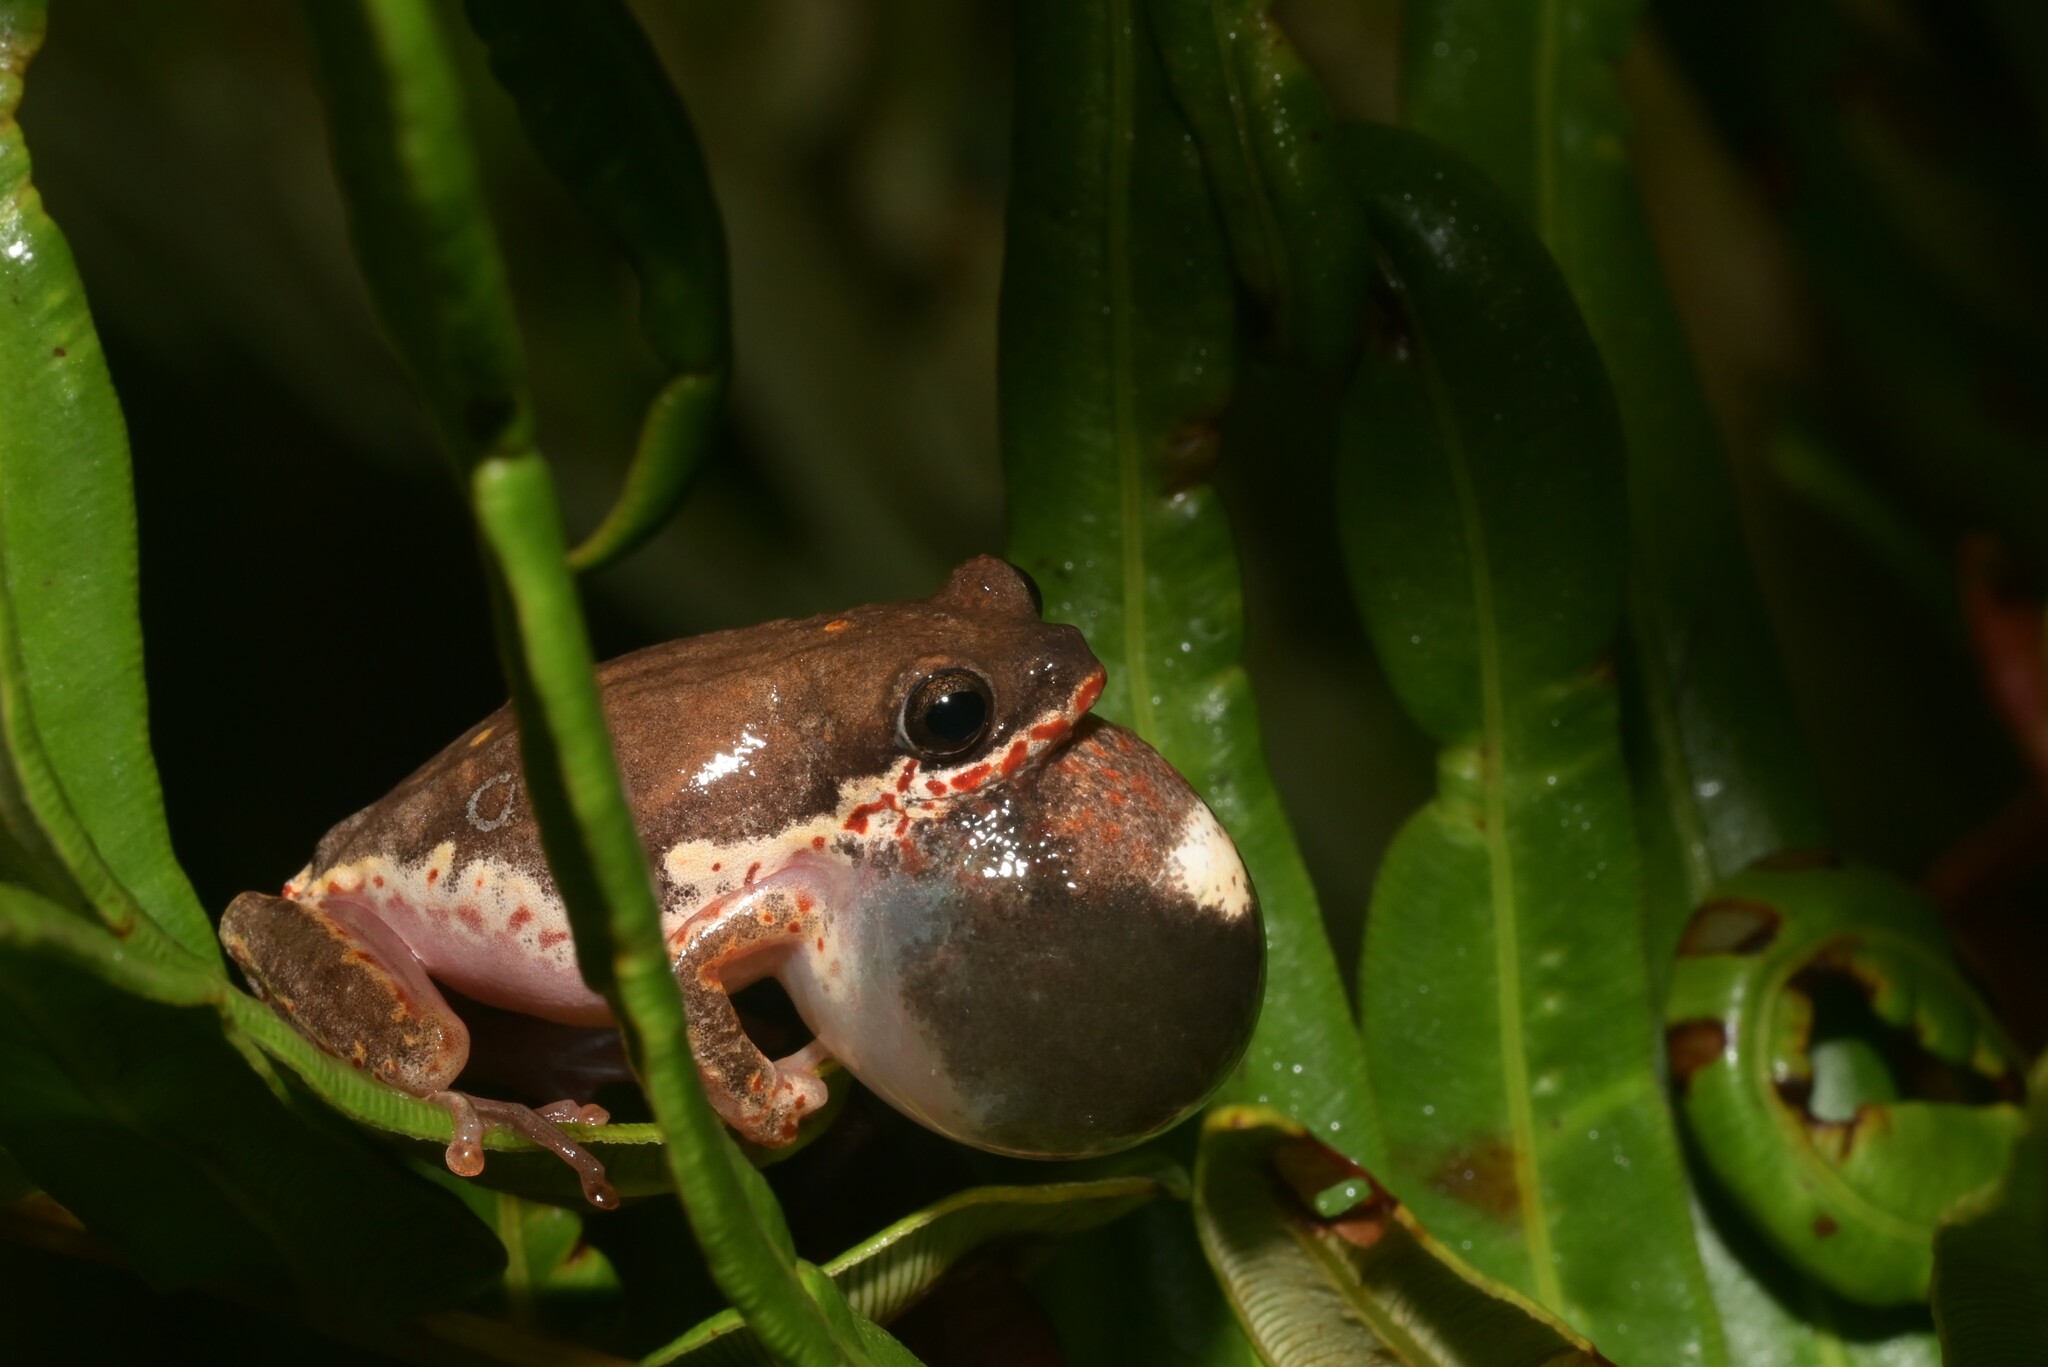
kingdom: Animalia
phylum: Chordata
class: Amphibia
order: Anura
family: Hyperoliidae
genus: Hyperolius
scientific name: Hyperolius marginatus
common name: Silver-striped sedgefrog
